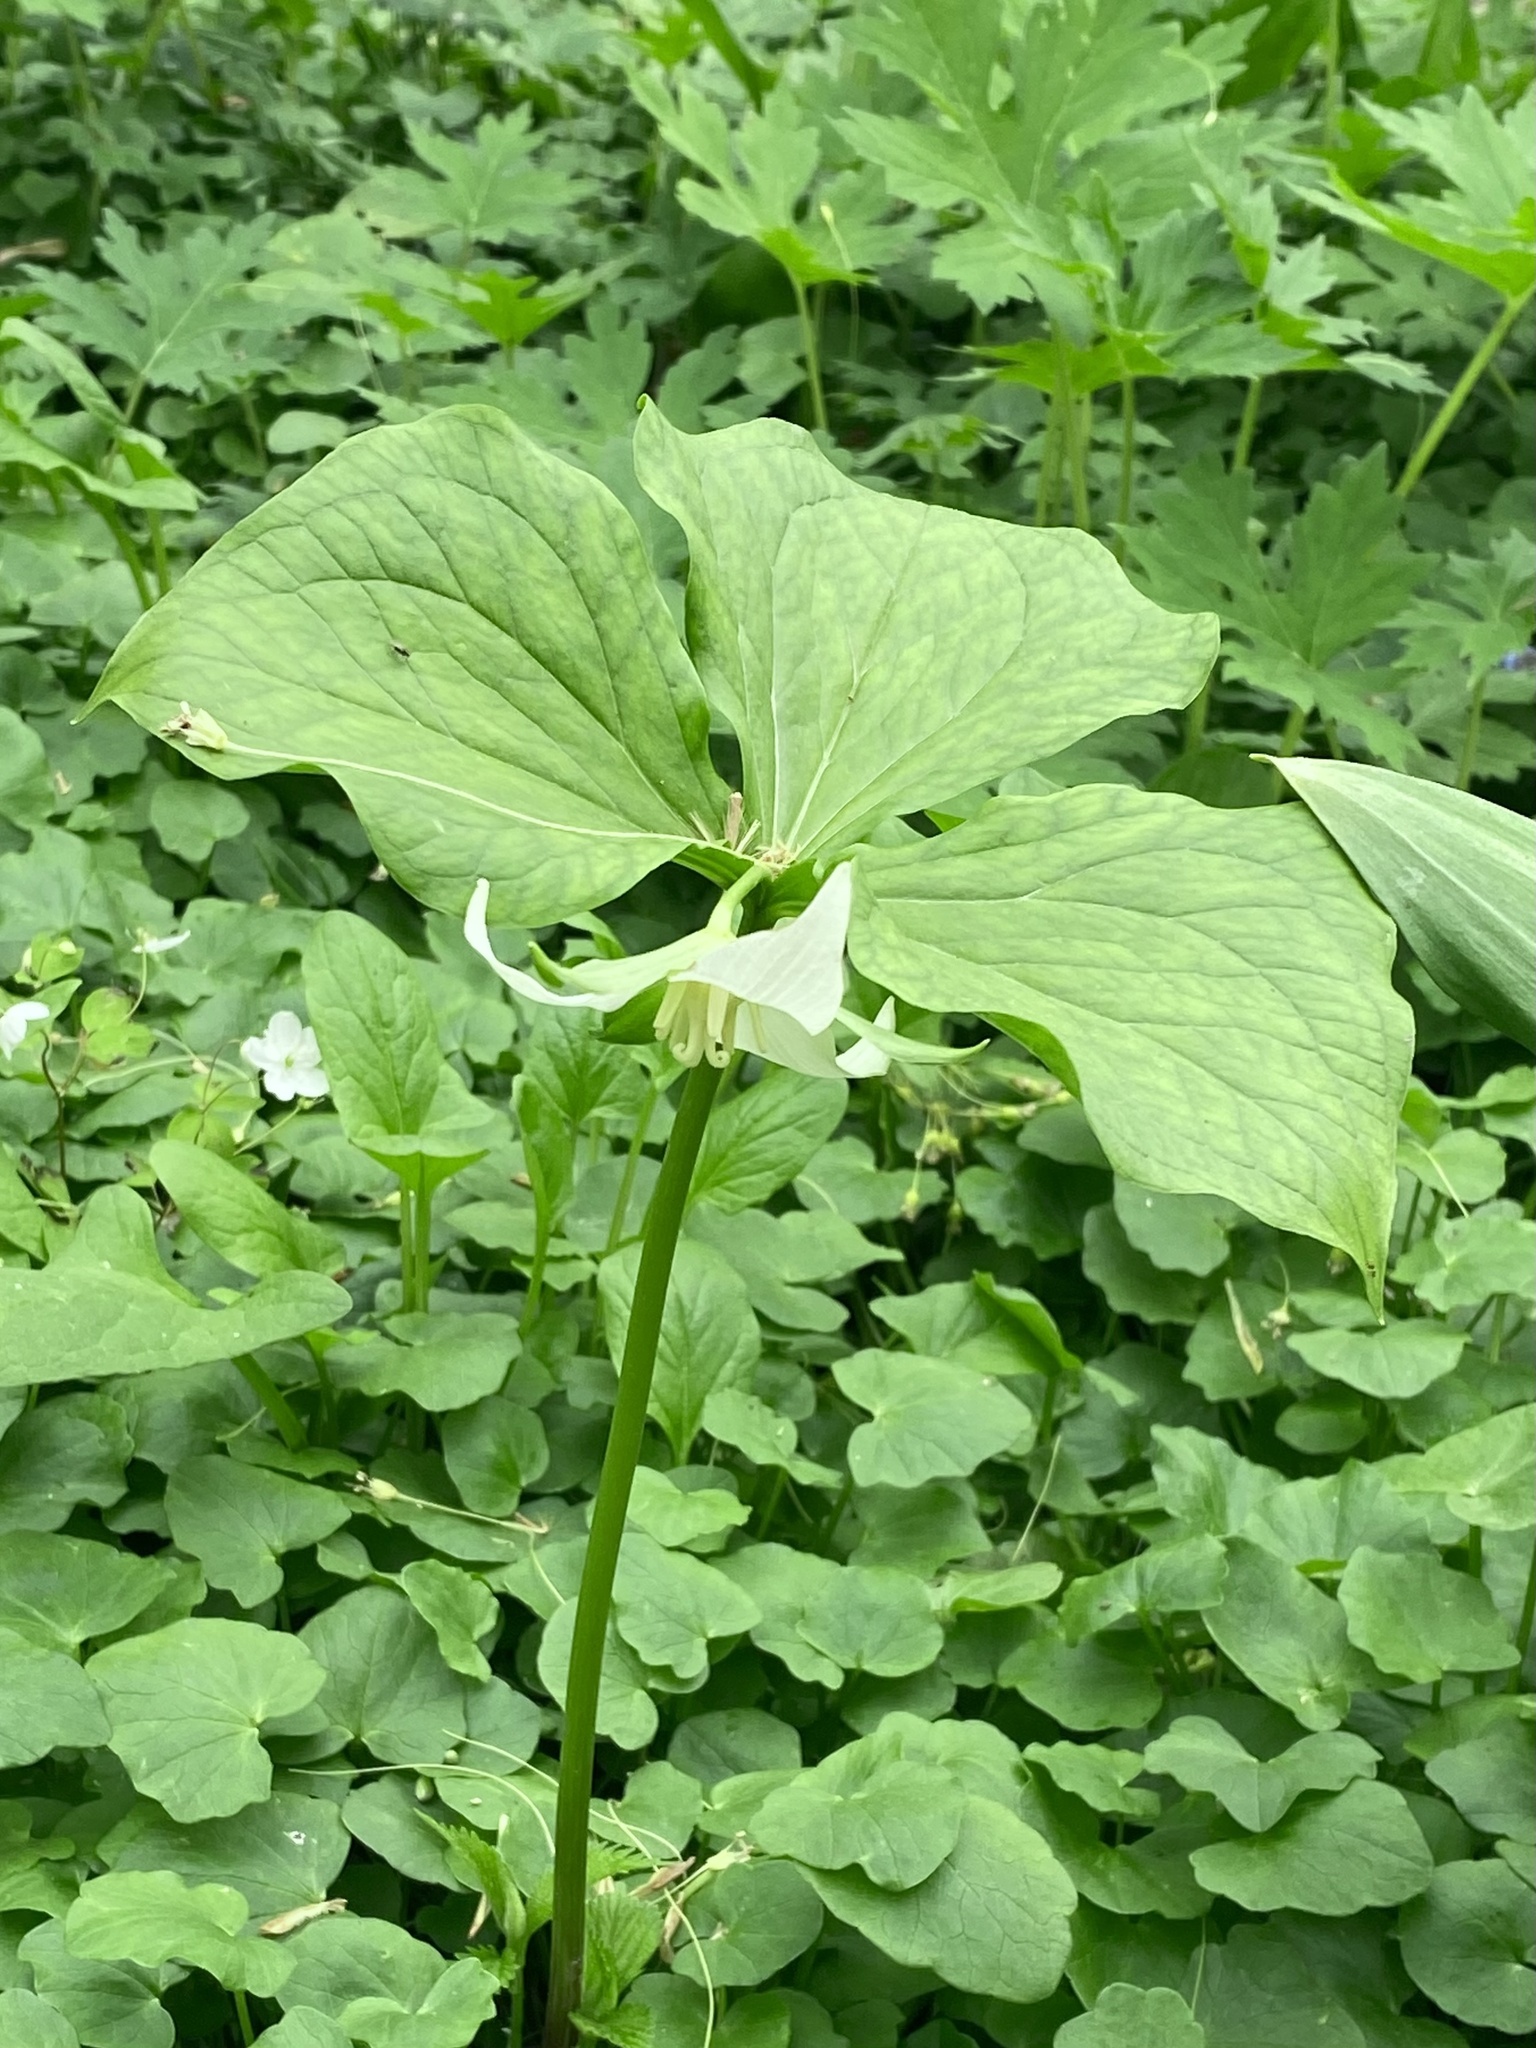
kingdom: Plantae
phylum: Tracheophyta
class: Liliopsida
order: Liliales
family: Melanthiaceae
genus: Trillium
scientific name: Trillium flexipes
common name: Drooping trillium
